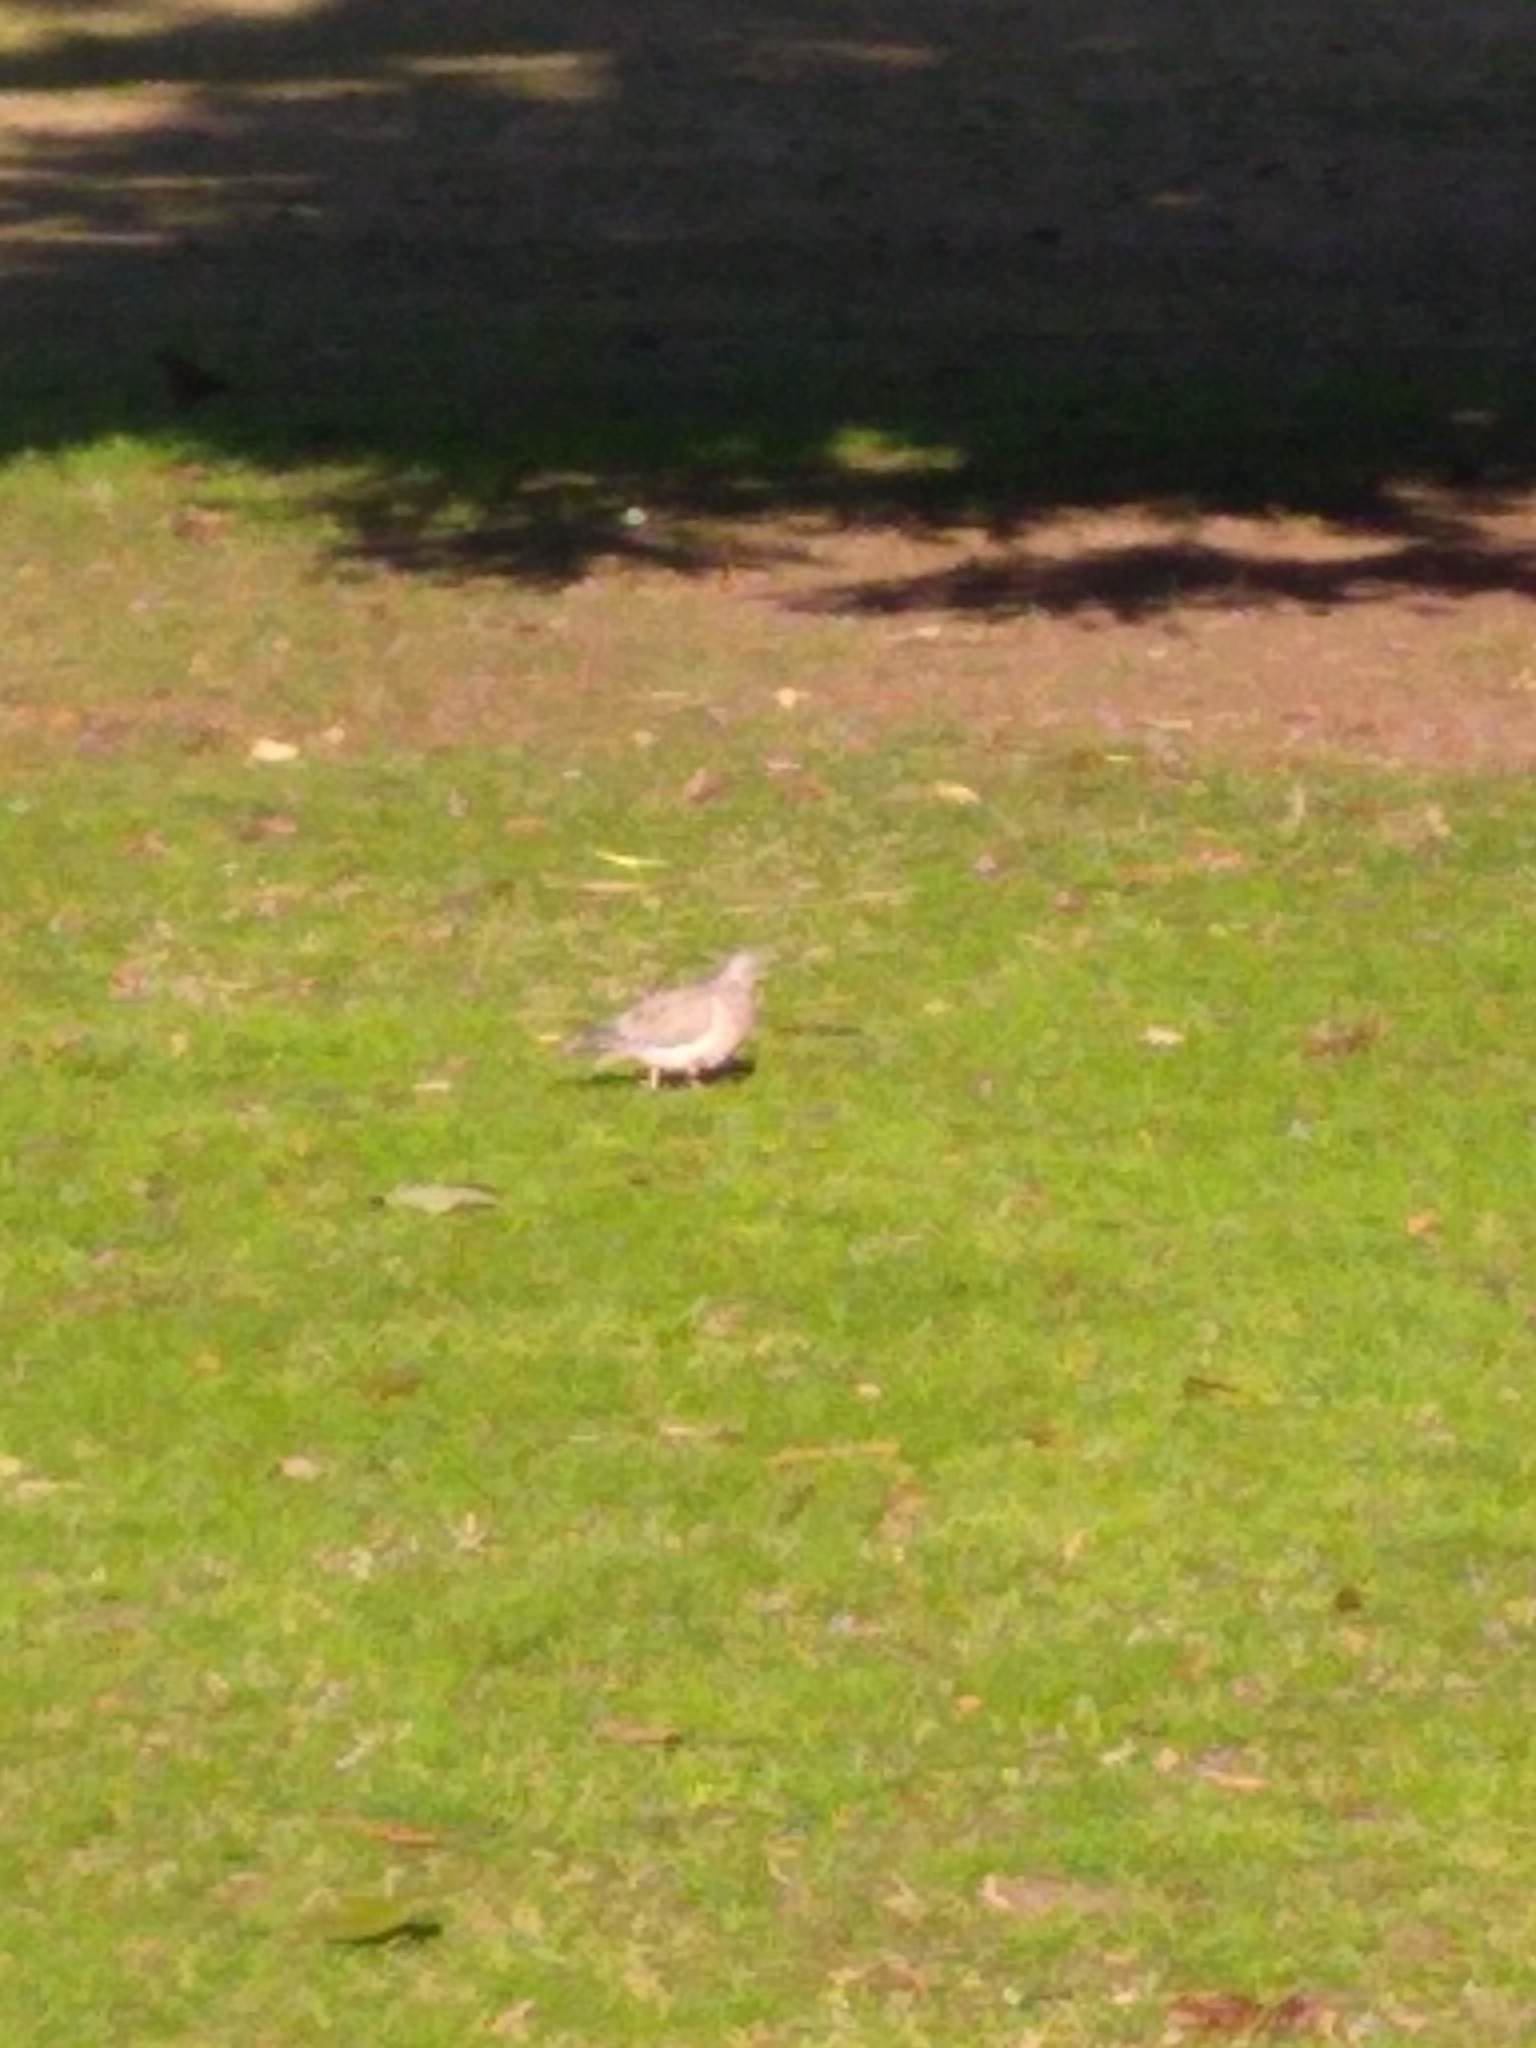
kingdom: Animalia
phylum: Chordata
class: Aves
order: Columbiformes
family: Columbidae
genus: Zenaida
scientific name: Zenaida auriculata
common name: Eared dove
